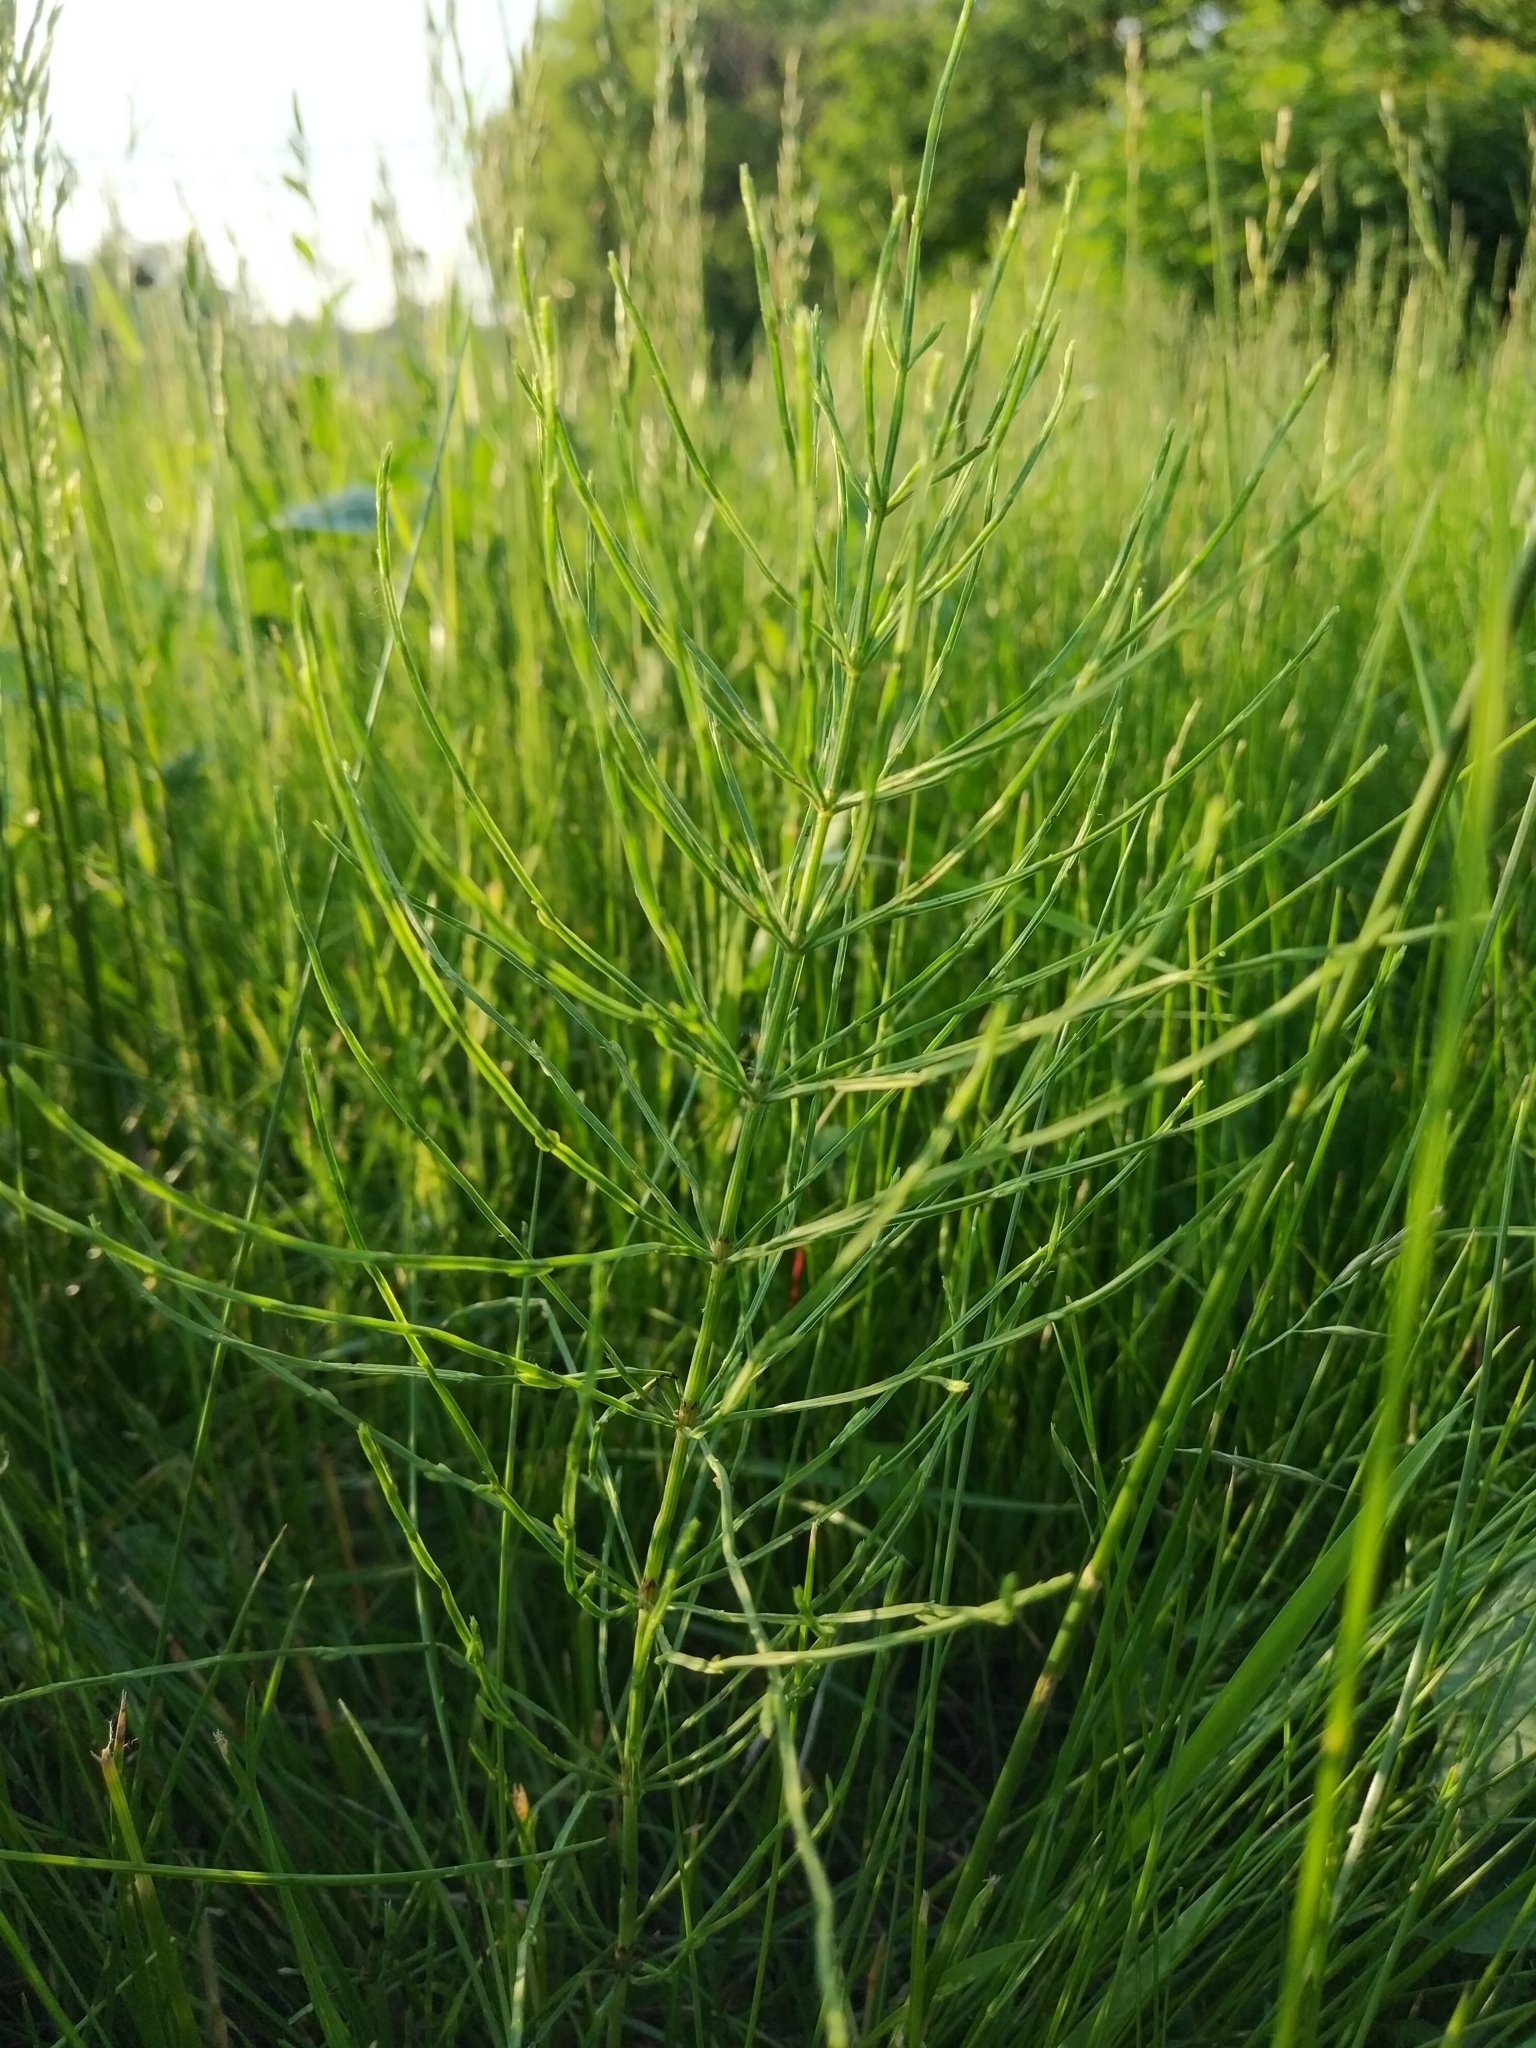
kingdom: Plantae
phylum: Tracheophyta
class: Polypodiopsida
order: Equisetales
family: Equisetaceae
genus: Equisetum
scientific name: Equisetum arvense
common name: Field horsetail
